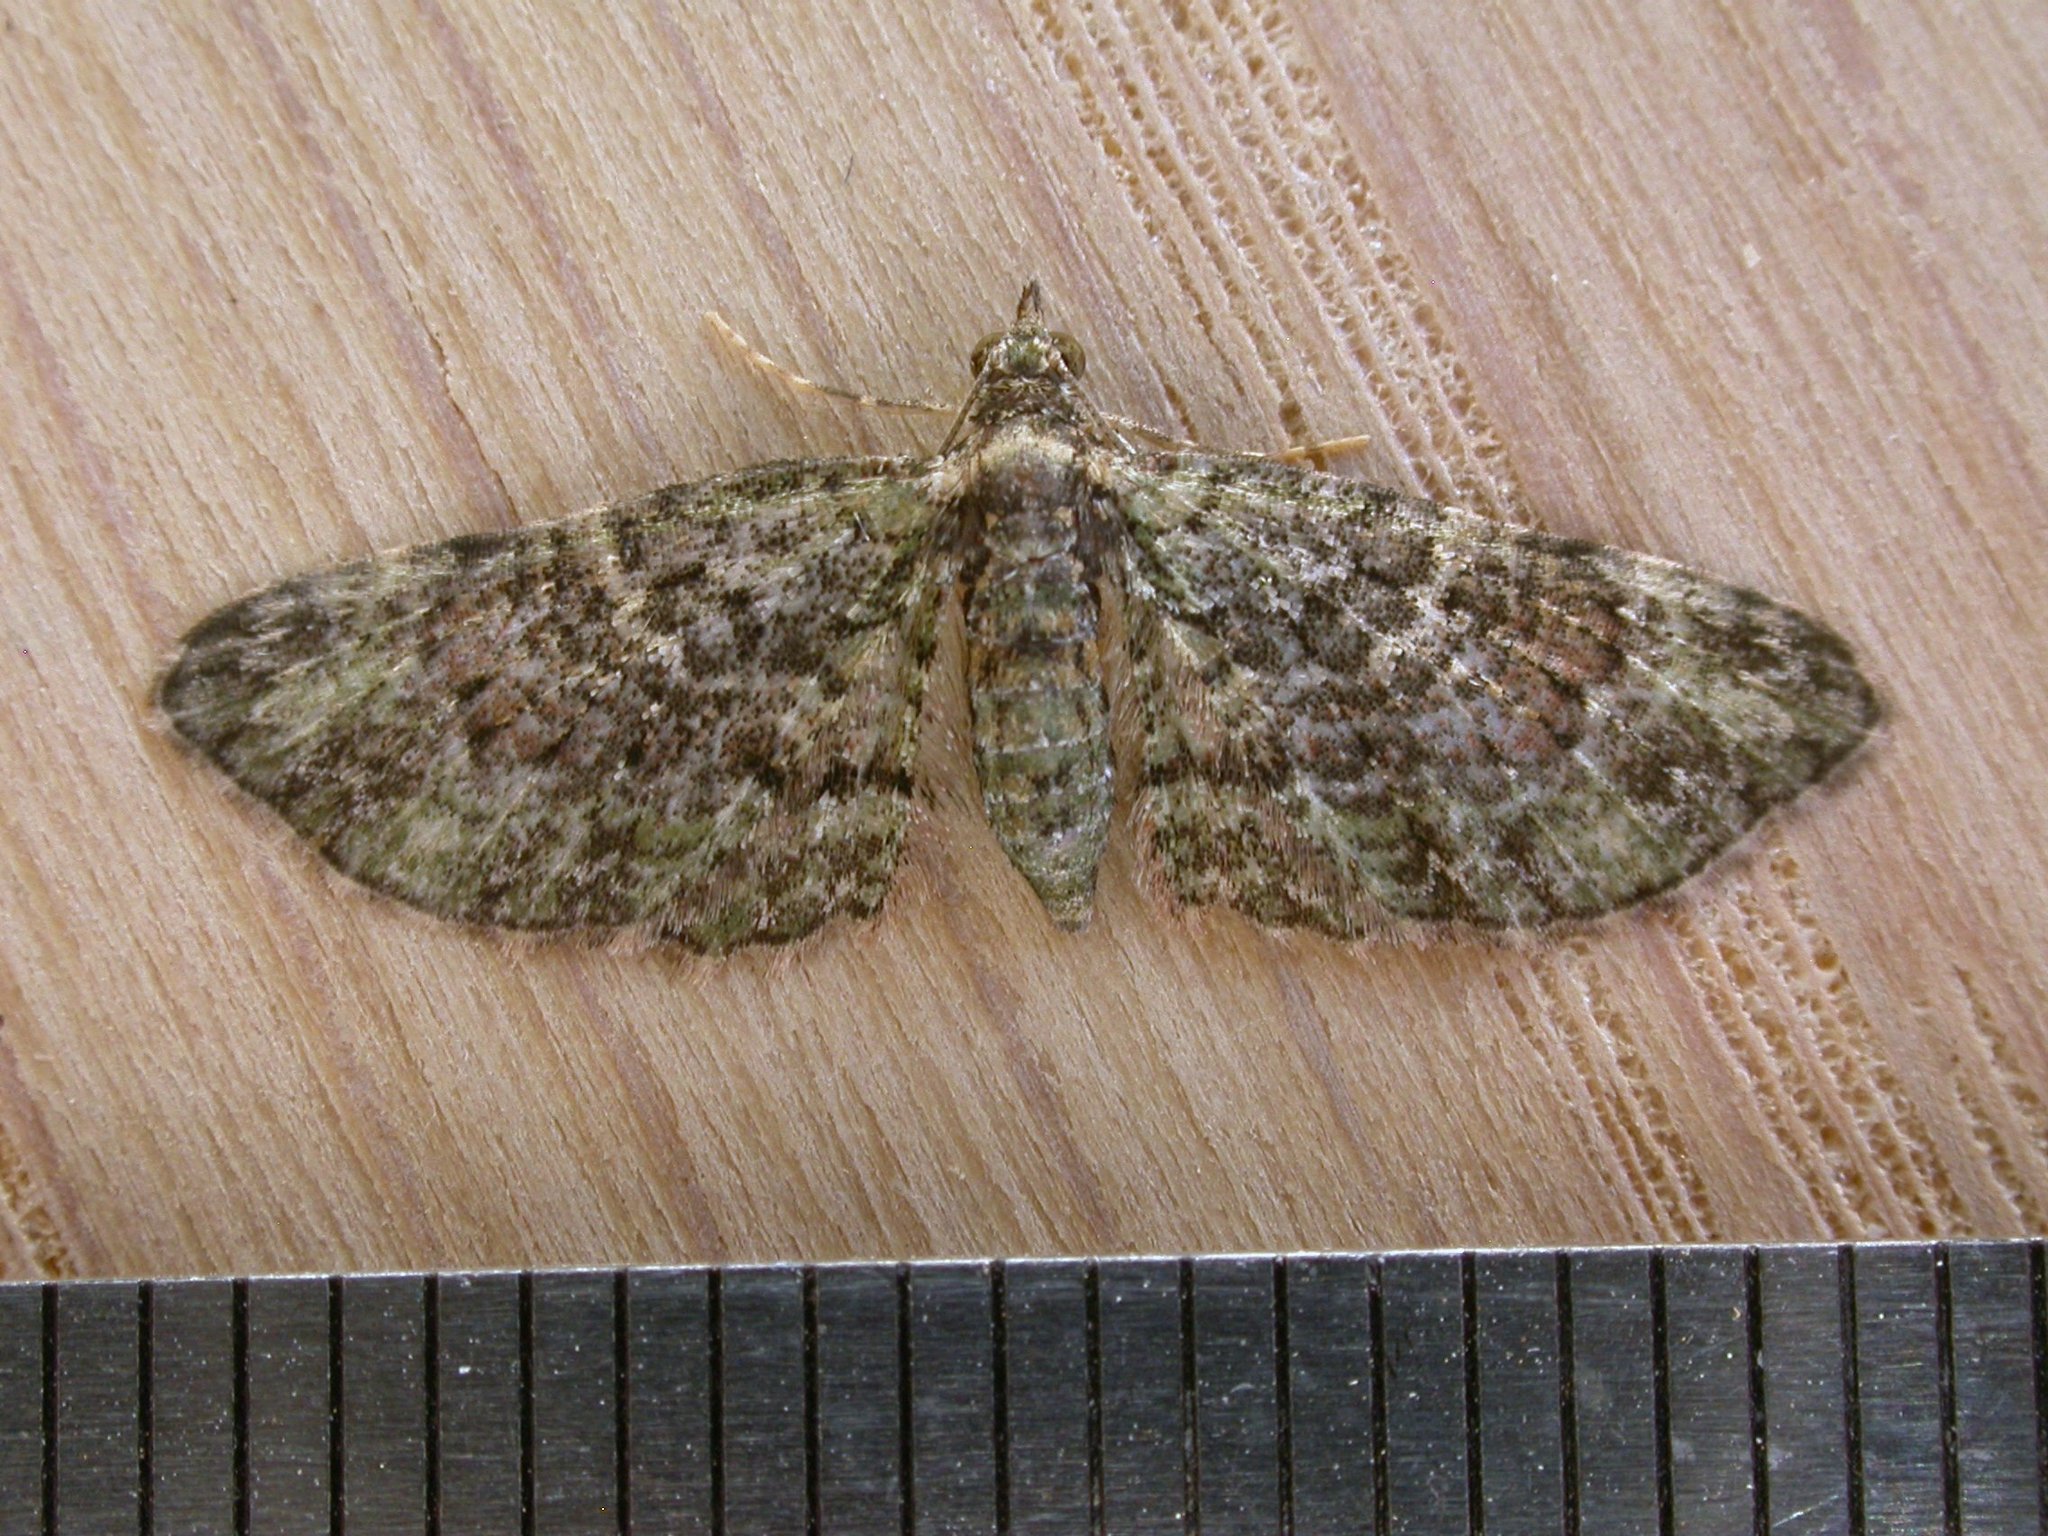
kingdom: Animalia
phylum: Arthropoda
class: Insecta
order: Lepidoptera
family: Geometridae
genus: Chloroclystis
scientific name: Chloroclystis catastreptes
